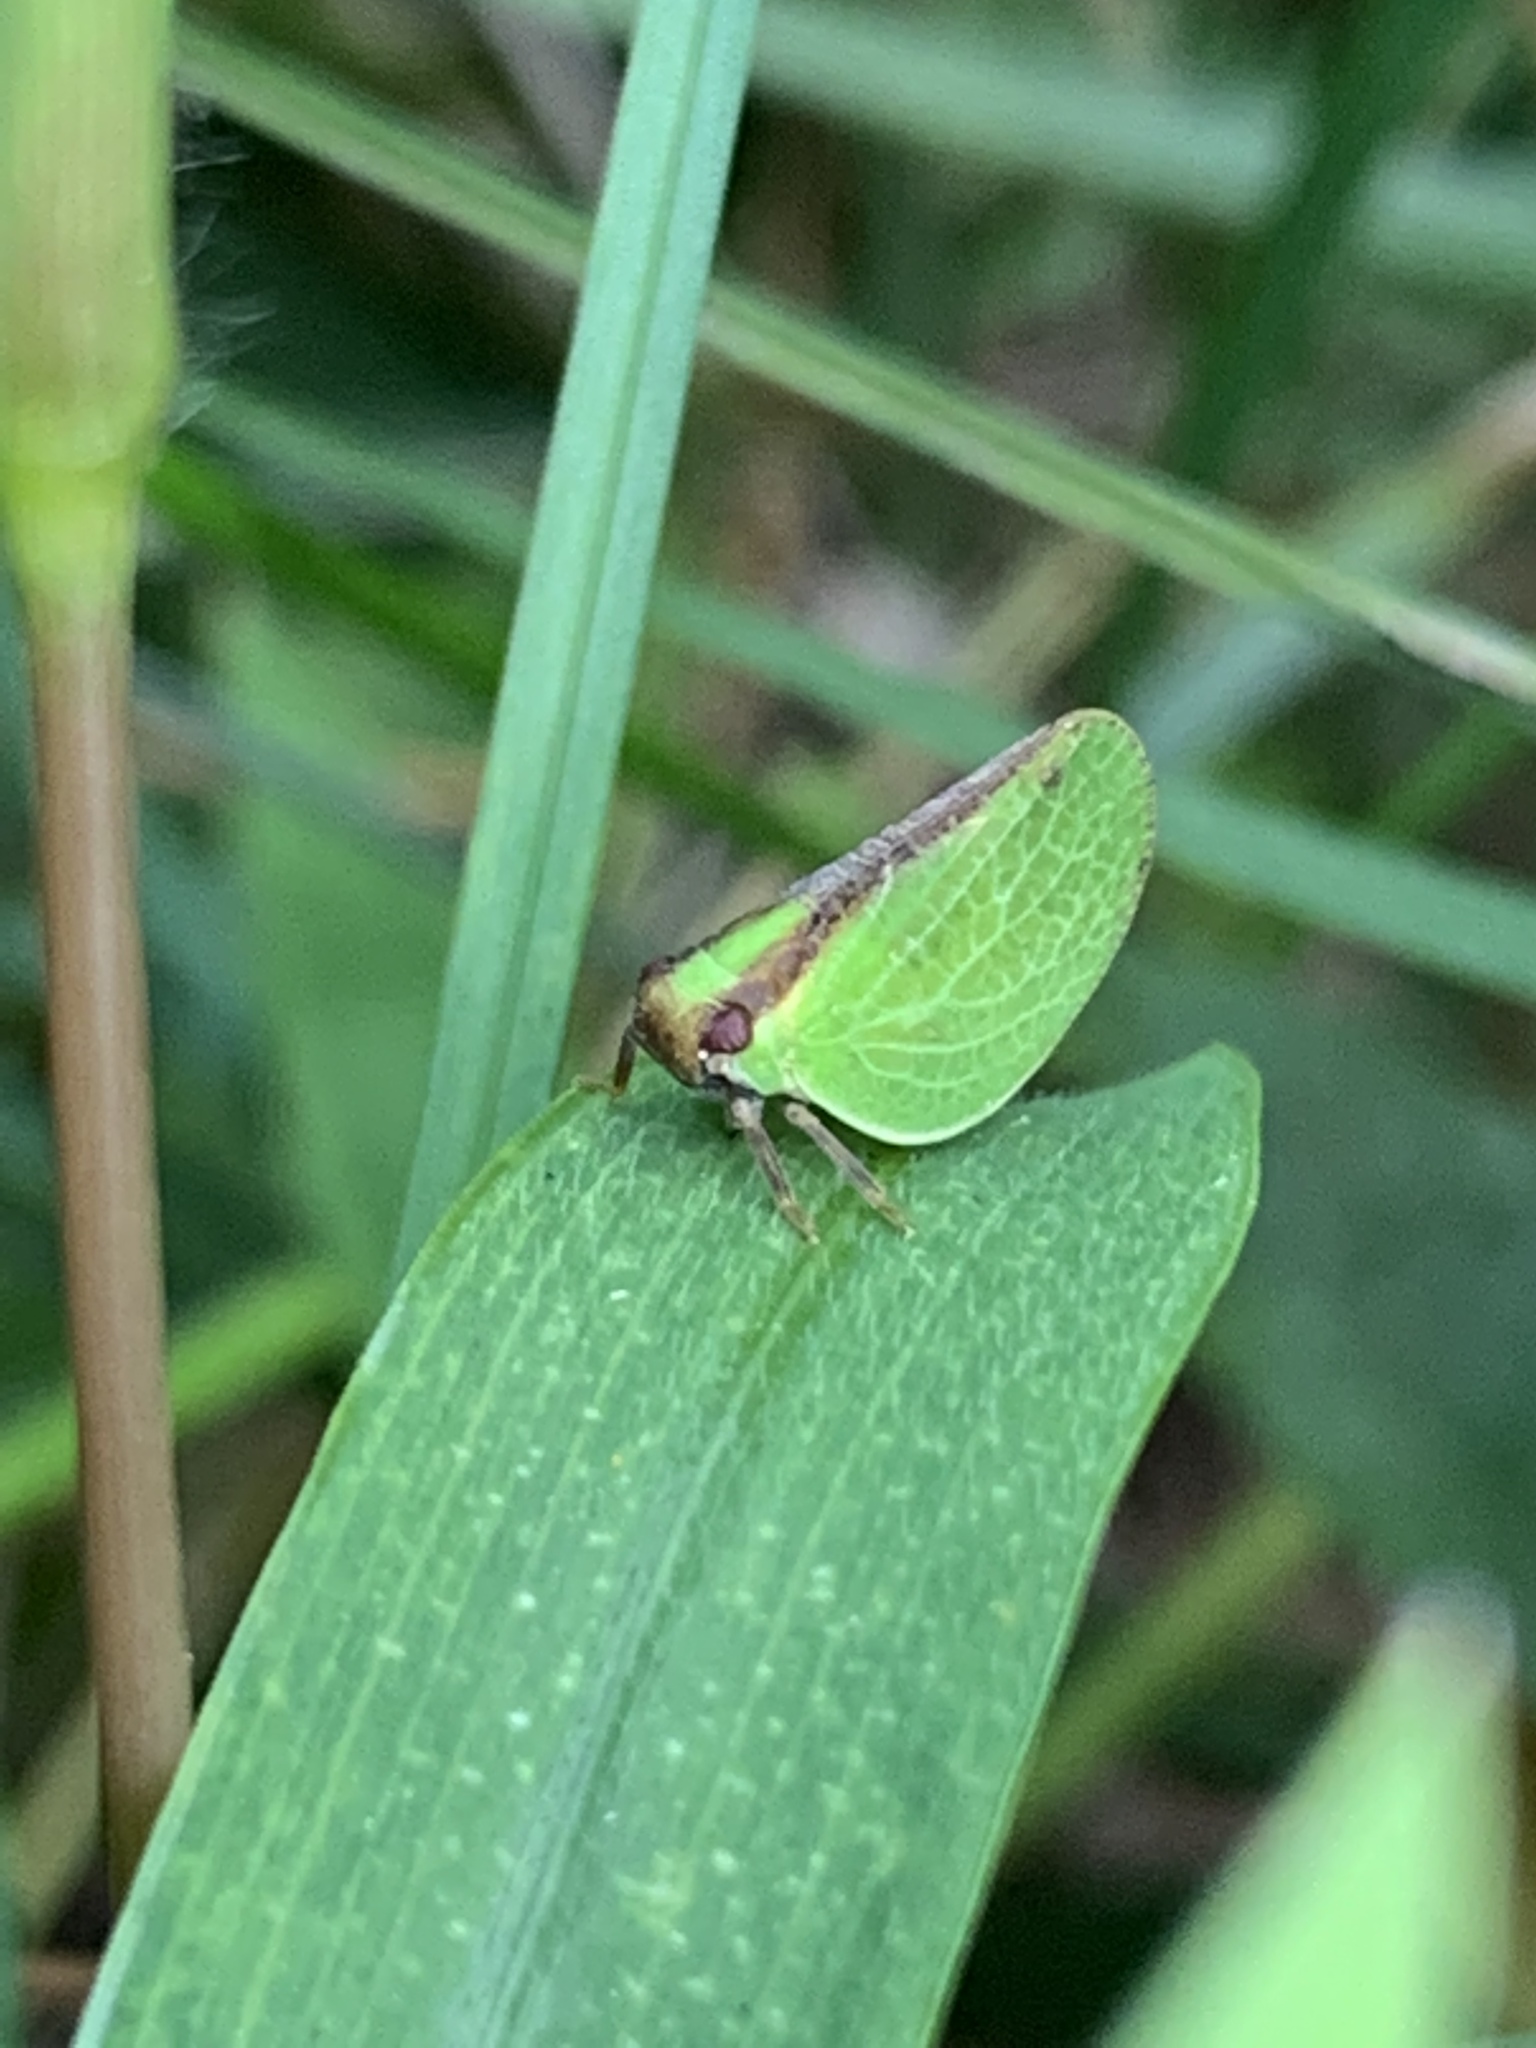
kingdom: Animalia
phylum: Arthropoda
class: Insecta
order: Hemiptera
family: Acanaloniidae
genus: Acanalonia
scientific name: Acanalonia bivittata
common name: Two-striped planthopper
